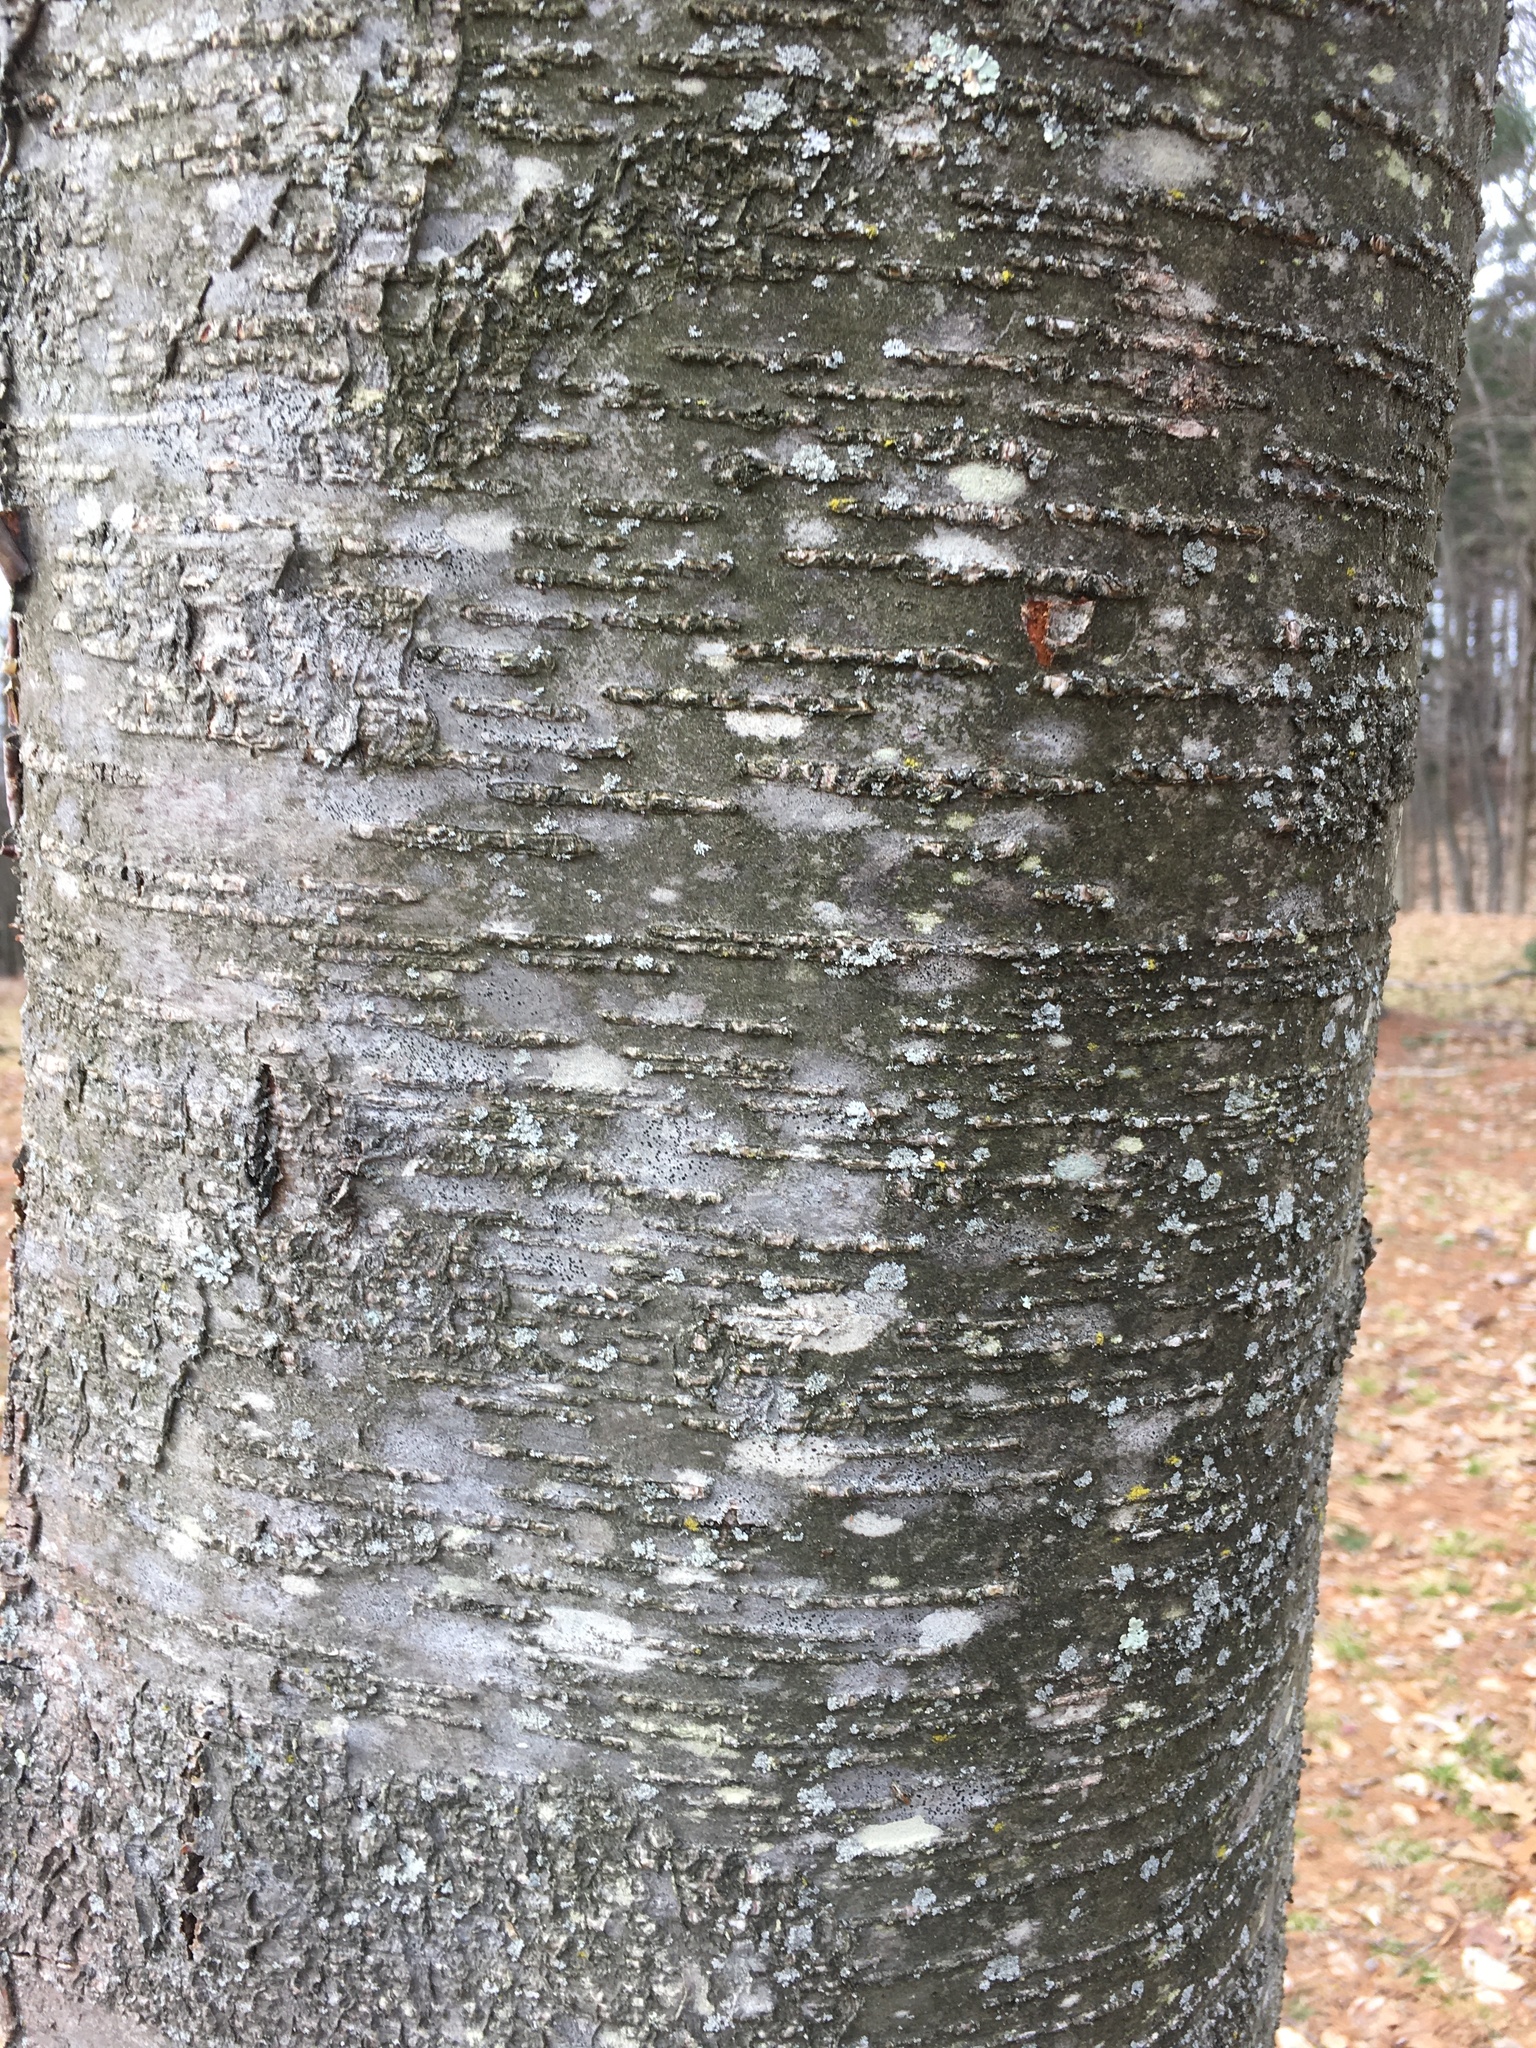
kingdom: Plantae
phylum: Tracheophyta
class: Magnoliopsida
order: Fagales
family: Betulaceae
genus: Betula
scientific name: Betula lenta
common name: Black birch
